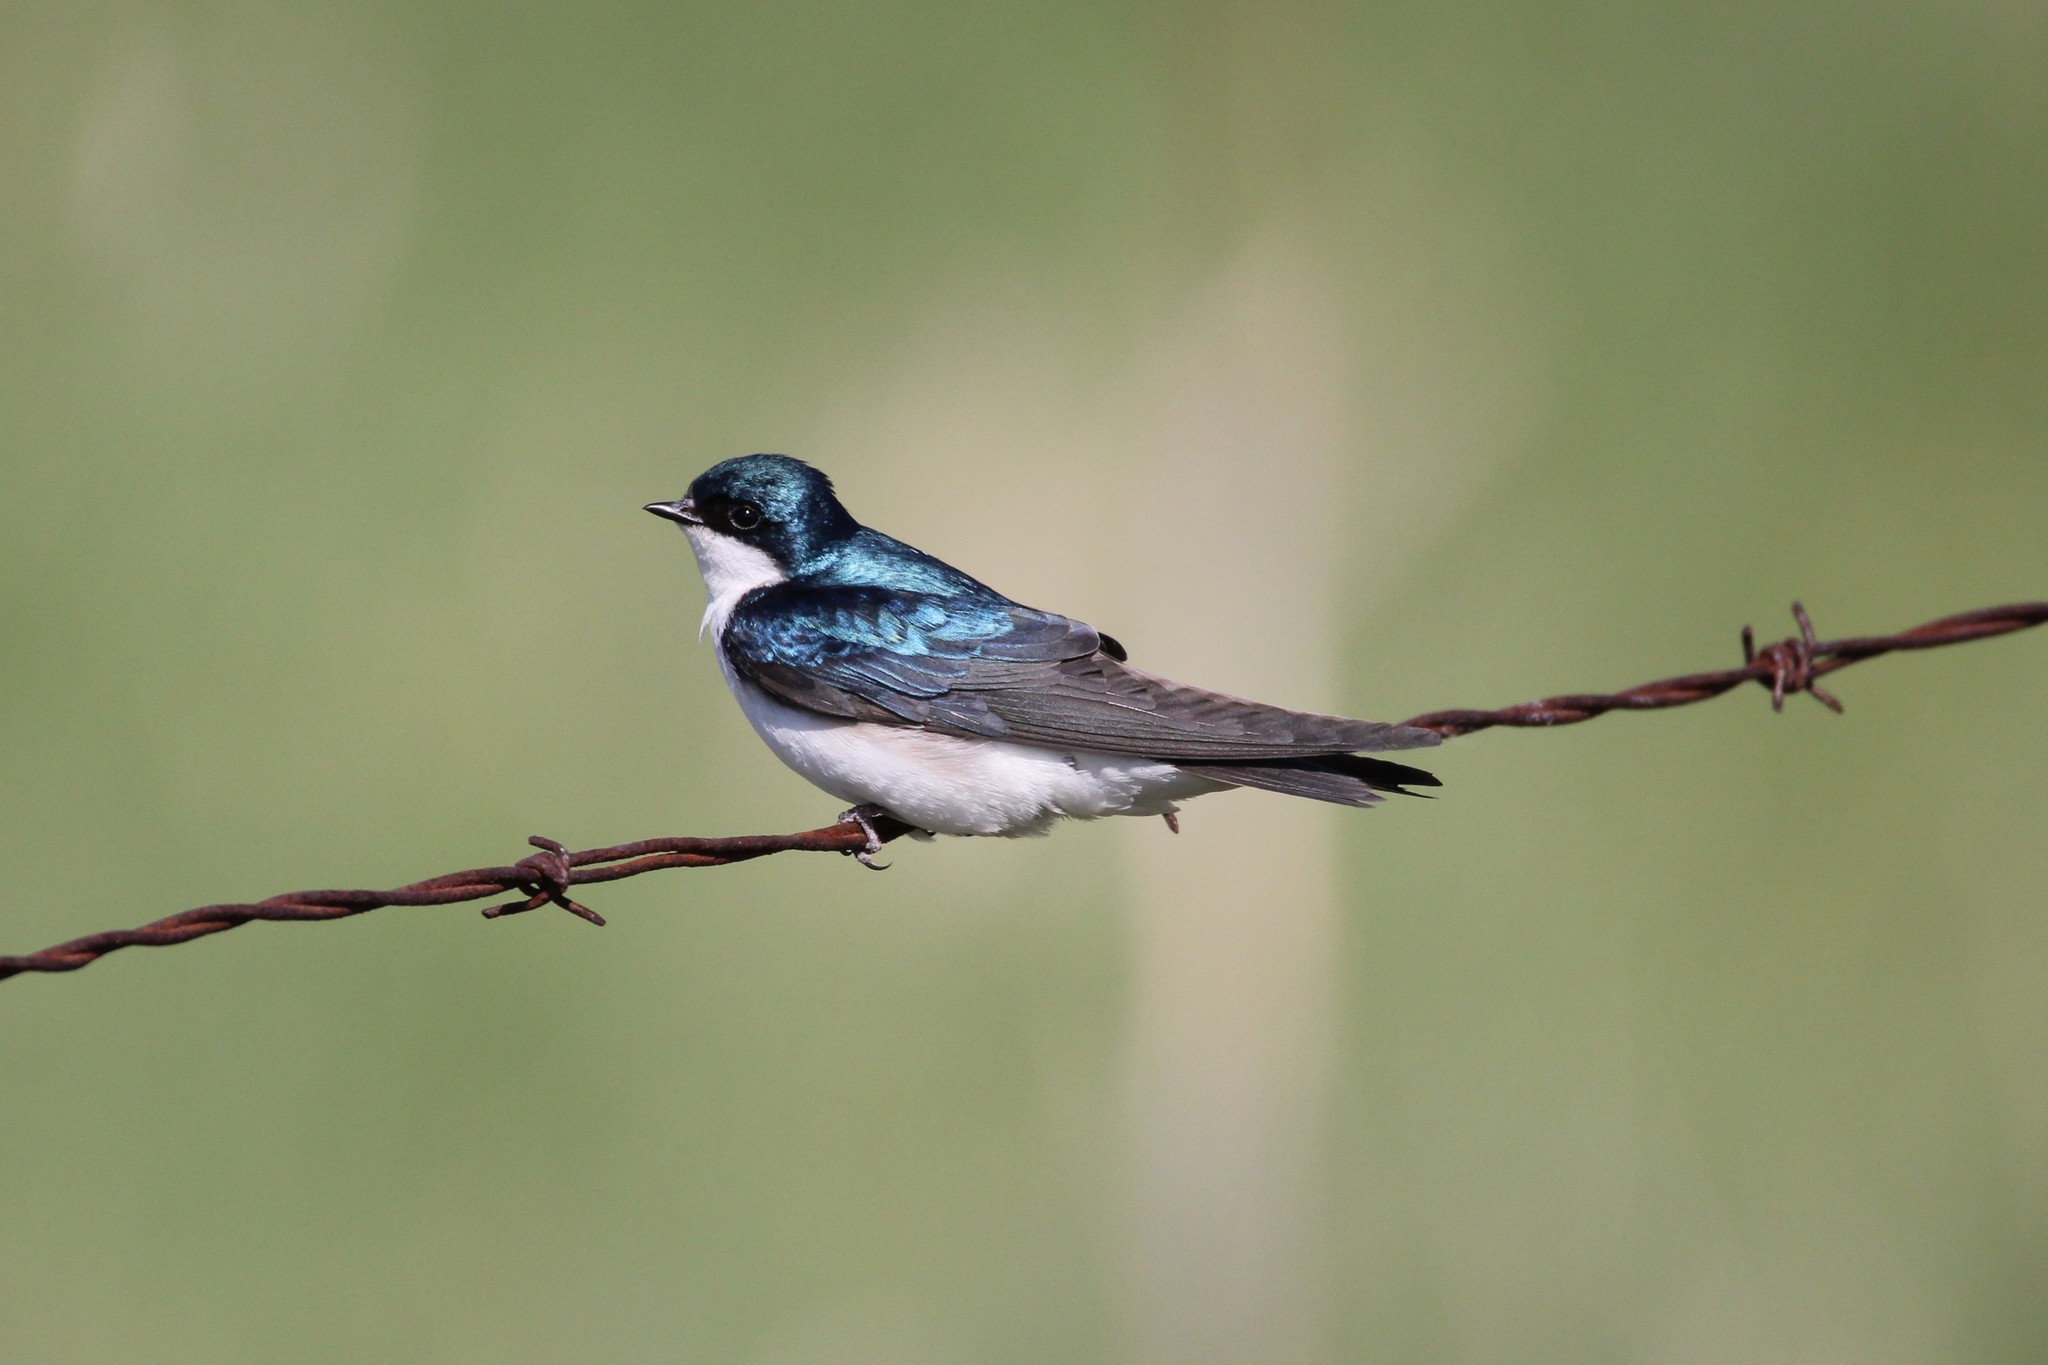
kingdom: Animalia
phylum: Chordata
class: Aves
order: Passeriformes
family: Hirundinidae
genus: Tachycineta
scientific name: Tachycineta bicolor
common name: Tree swallow
